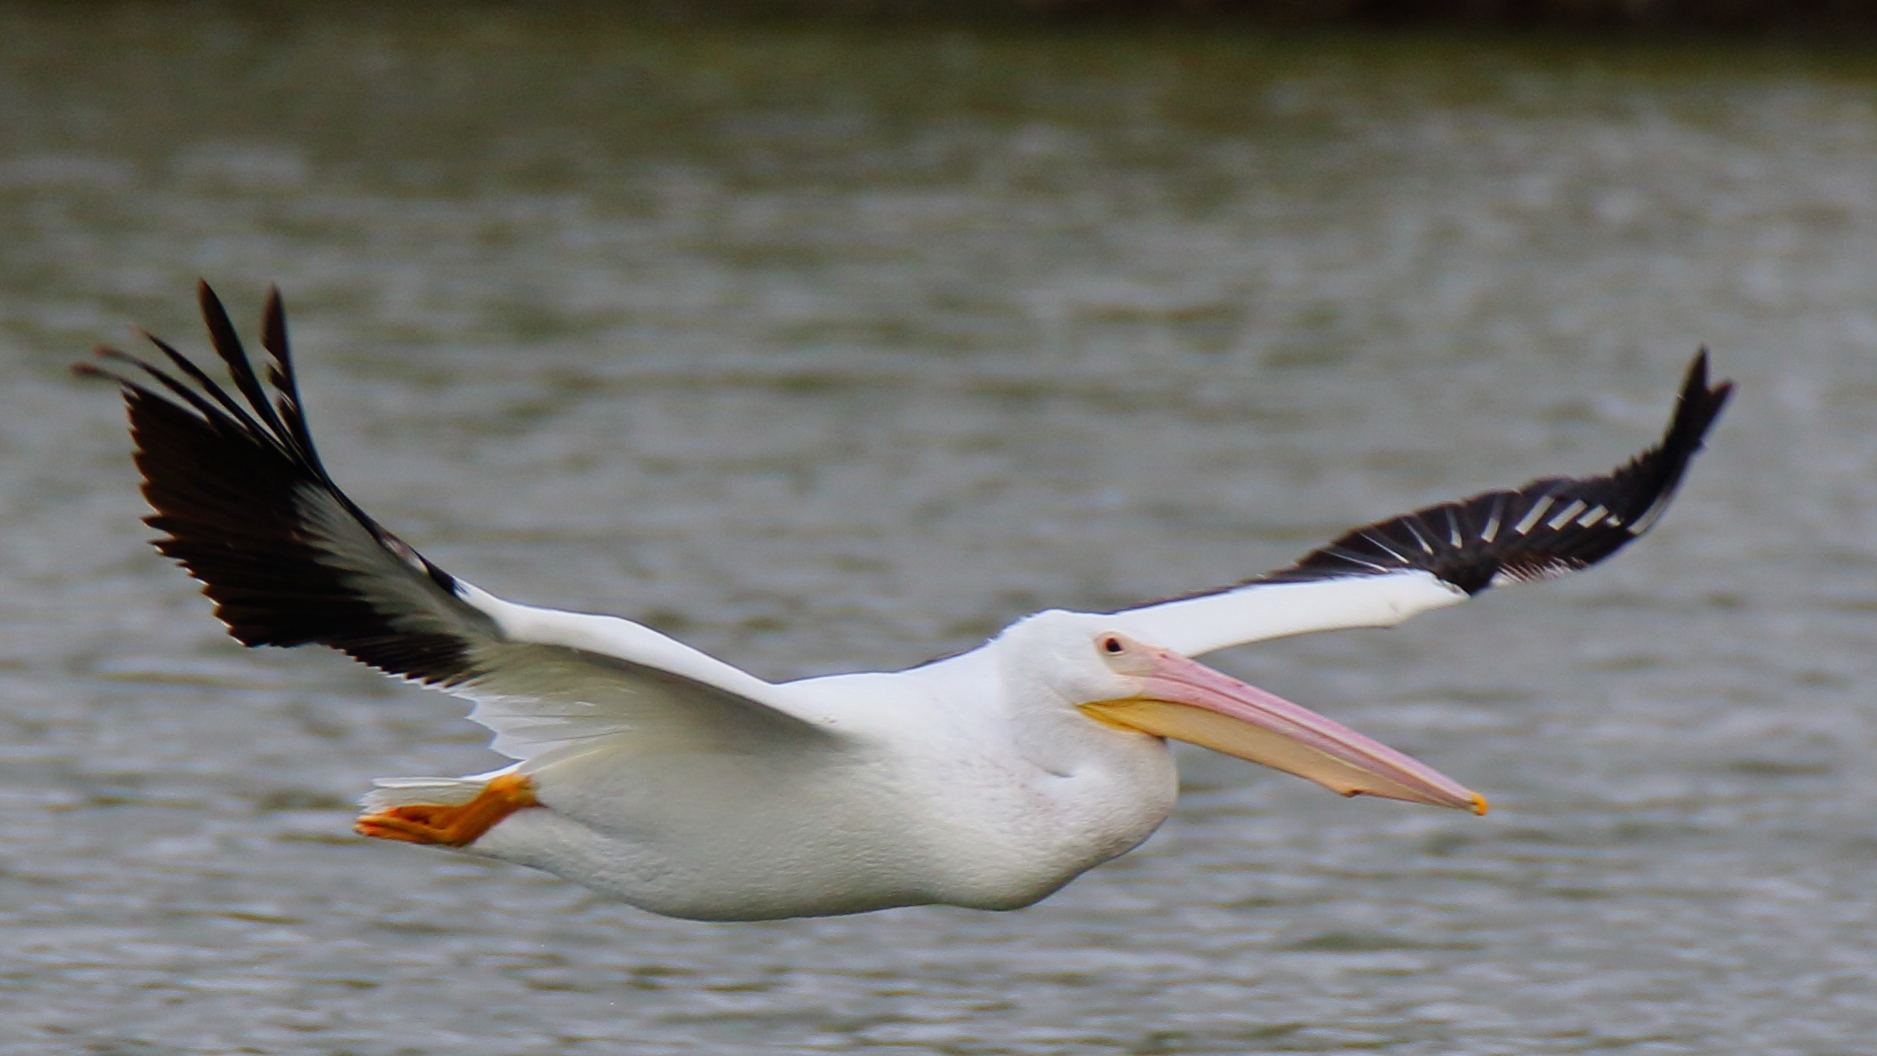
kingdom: Animalia
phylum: Chordata
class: Aves
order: Pelecaniformes
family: Pelecanidae
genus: Pelecanus
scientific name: Pelecanus erythrorhynchos
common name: American white pelican
